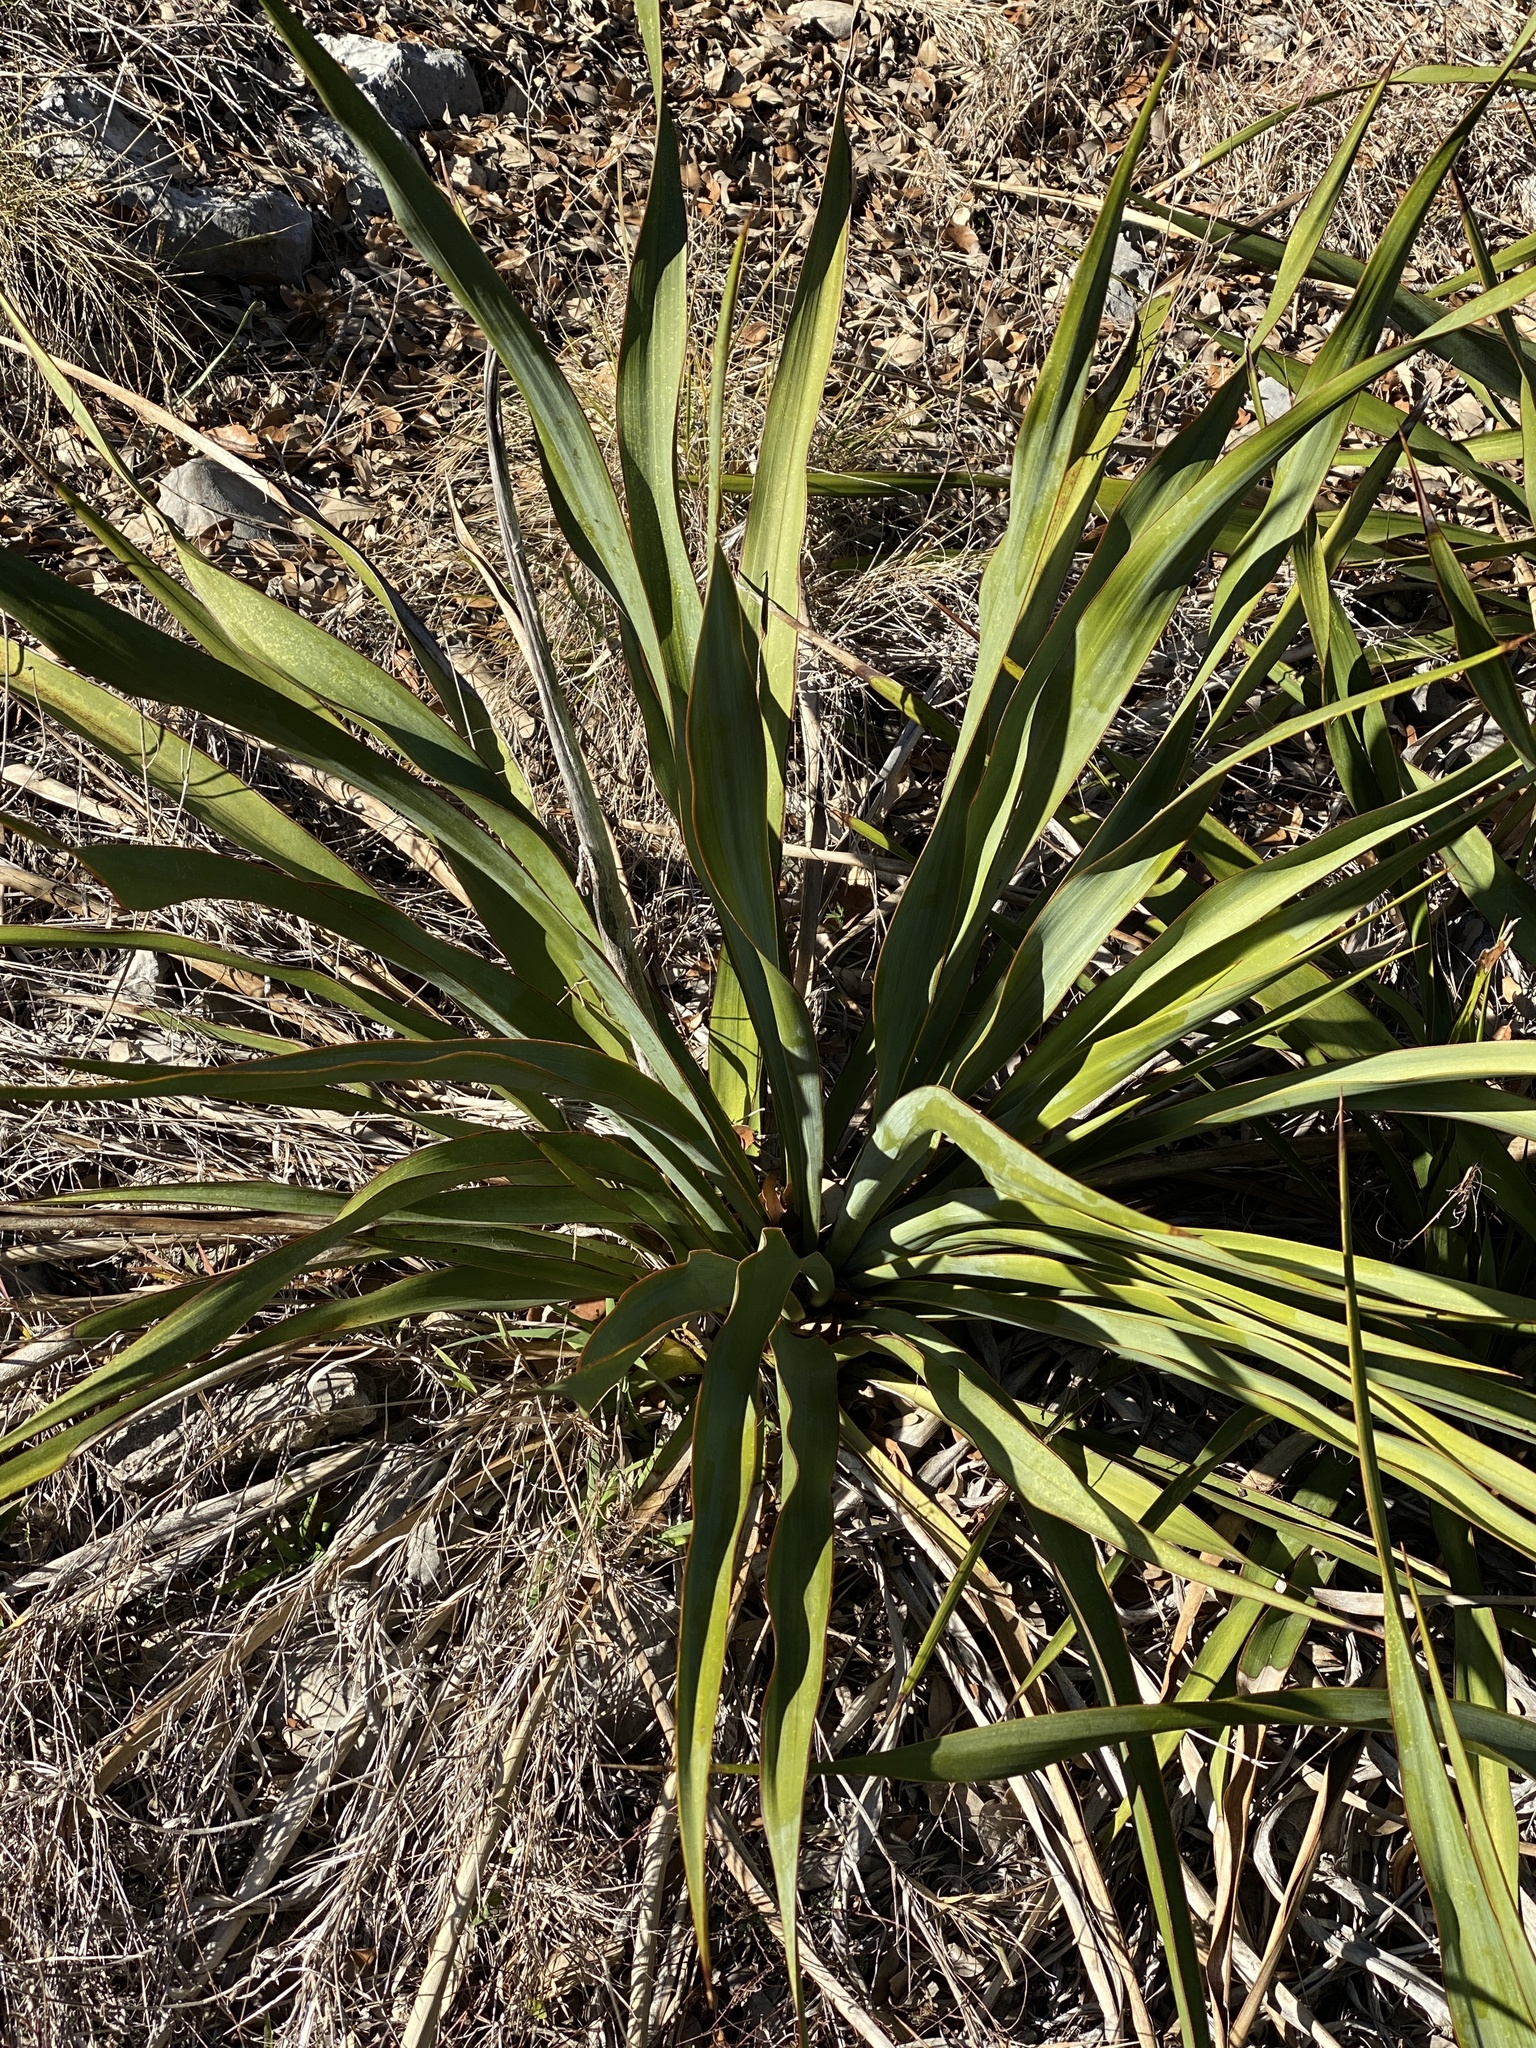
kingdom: Plantae
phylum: Tracheophyta
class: Liliopsida
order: Asparagales
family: Asparagaceae
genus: Yucca
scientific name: Yucca rupicola
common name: Twisted-leaf spanish-dagger
